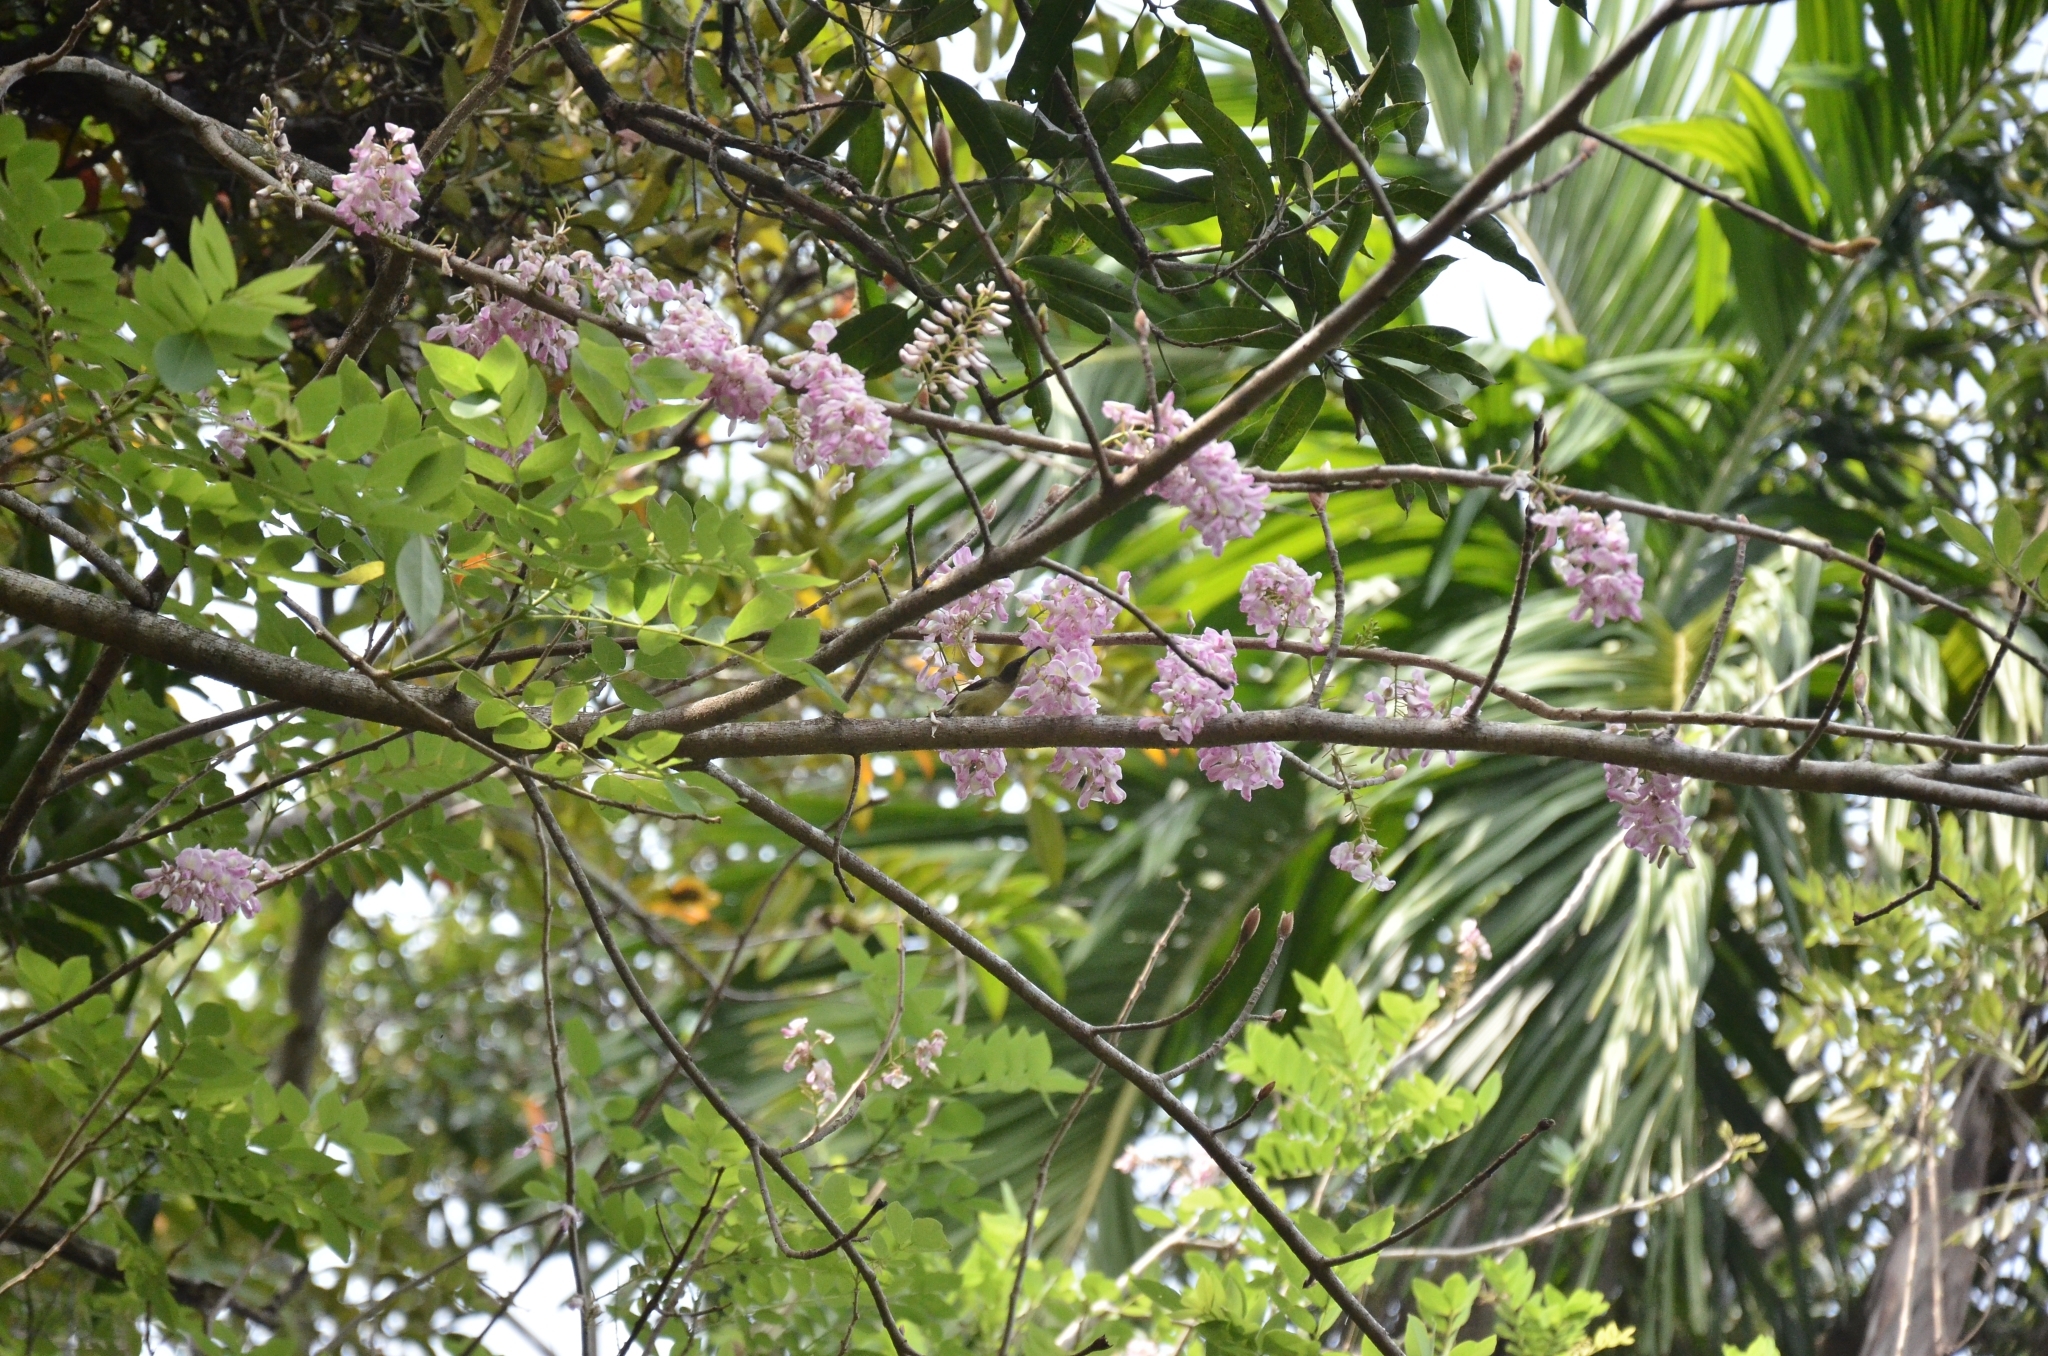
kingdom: Plantae
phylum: Tracheophyta
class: Magnoliopsida
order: Fabales
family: Fabaceae
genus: Gliricidia
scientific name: Gliricidia sepium
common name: Quickstick
